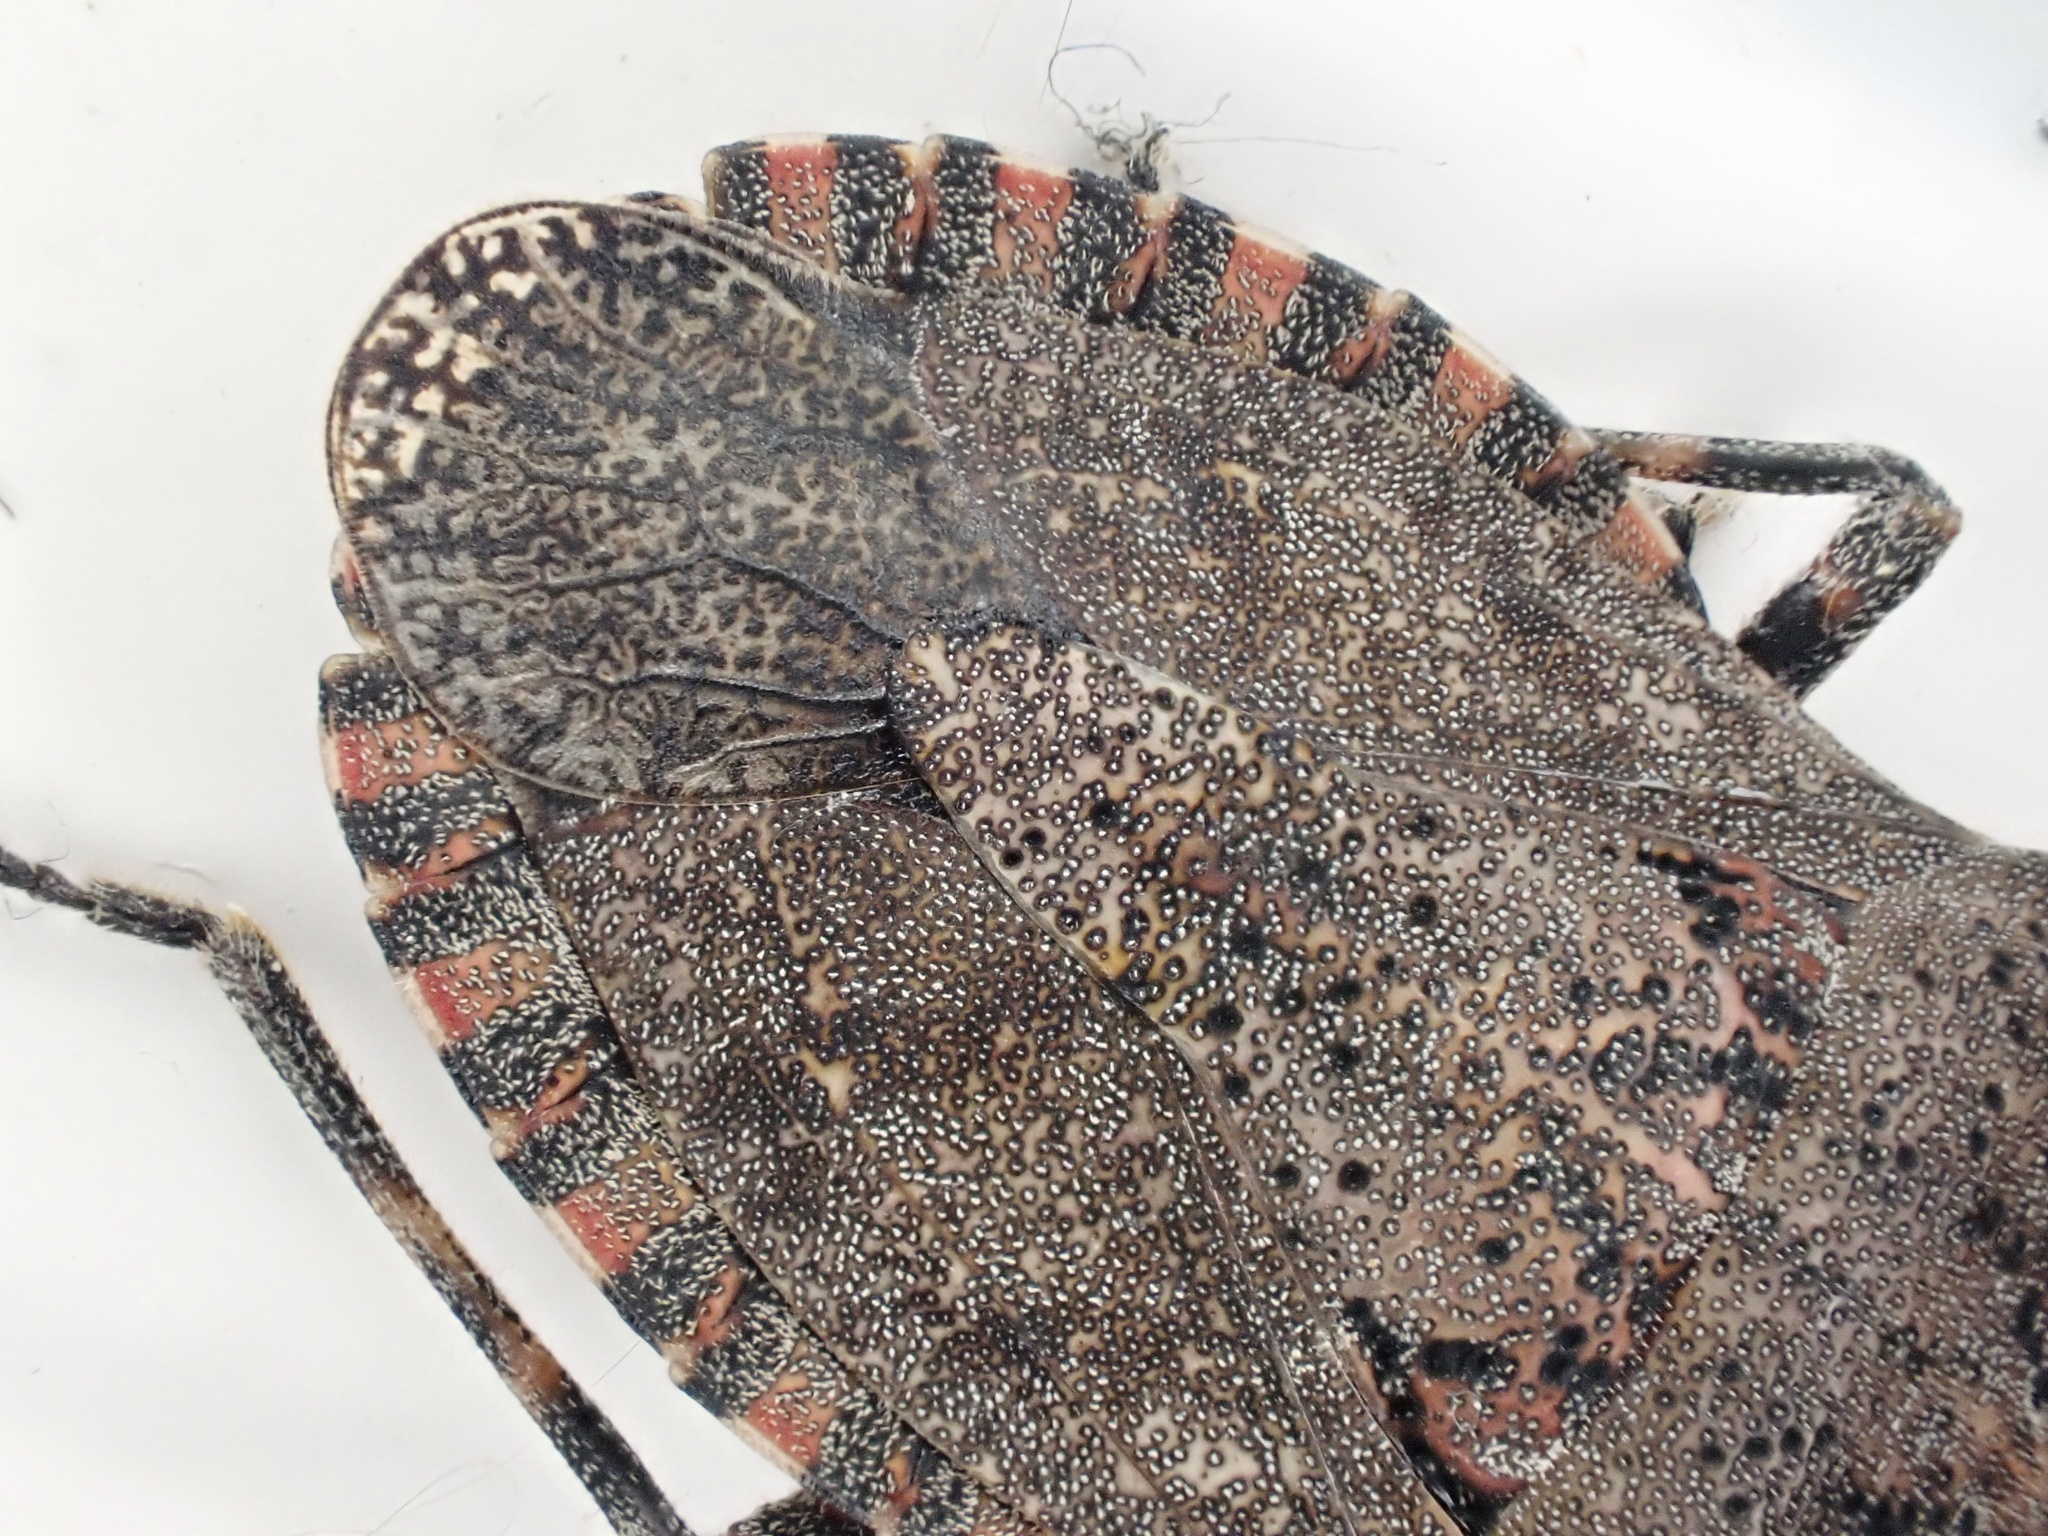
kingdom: Animalia
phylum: Arthropoda
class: Insecta
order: Hemiptera
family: Pentatomidae
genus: Brochymena
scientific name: Brochymena quadripustulata
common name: Four-humped stink bug
